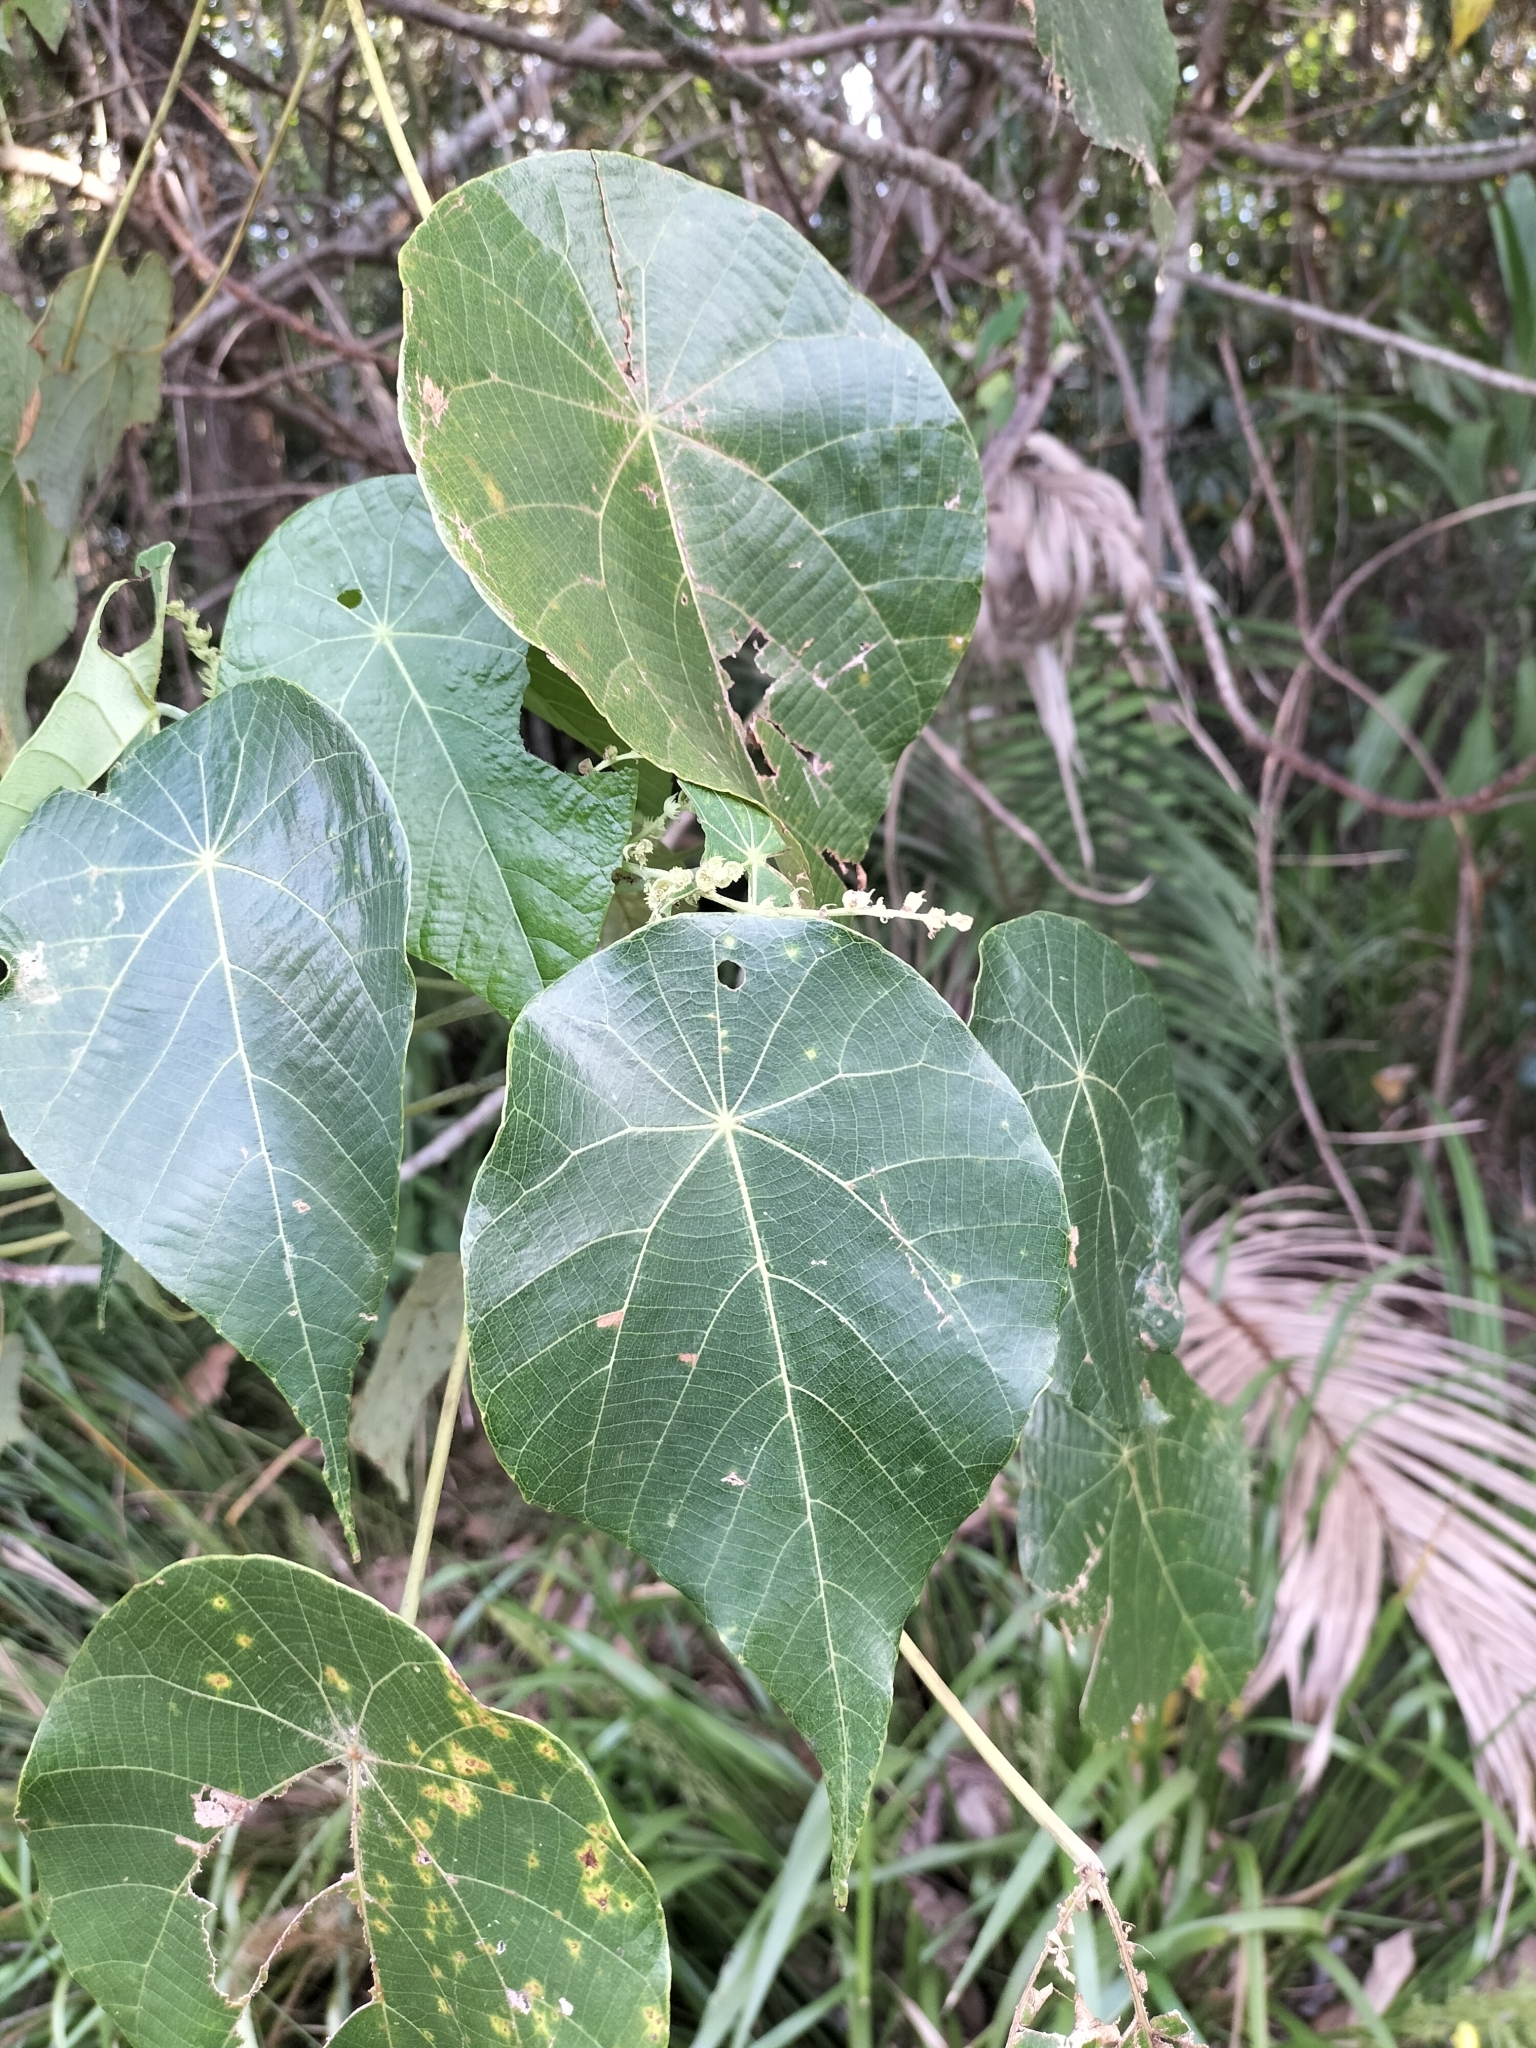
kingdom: Plantae
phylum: Tracheophyta
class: Magnoliopsida
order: Malpighiales
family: Euphorbiaceae
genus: Macaranga
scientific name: Macaranga tanarius
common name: Parasol leaf tree
